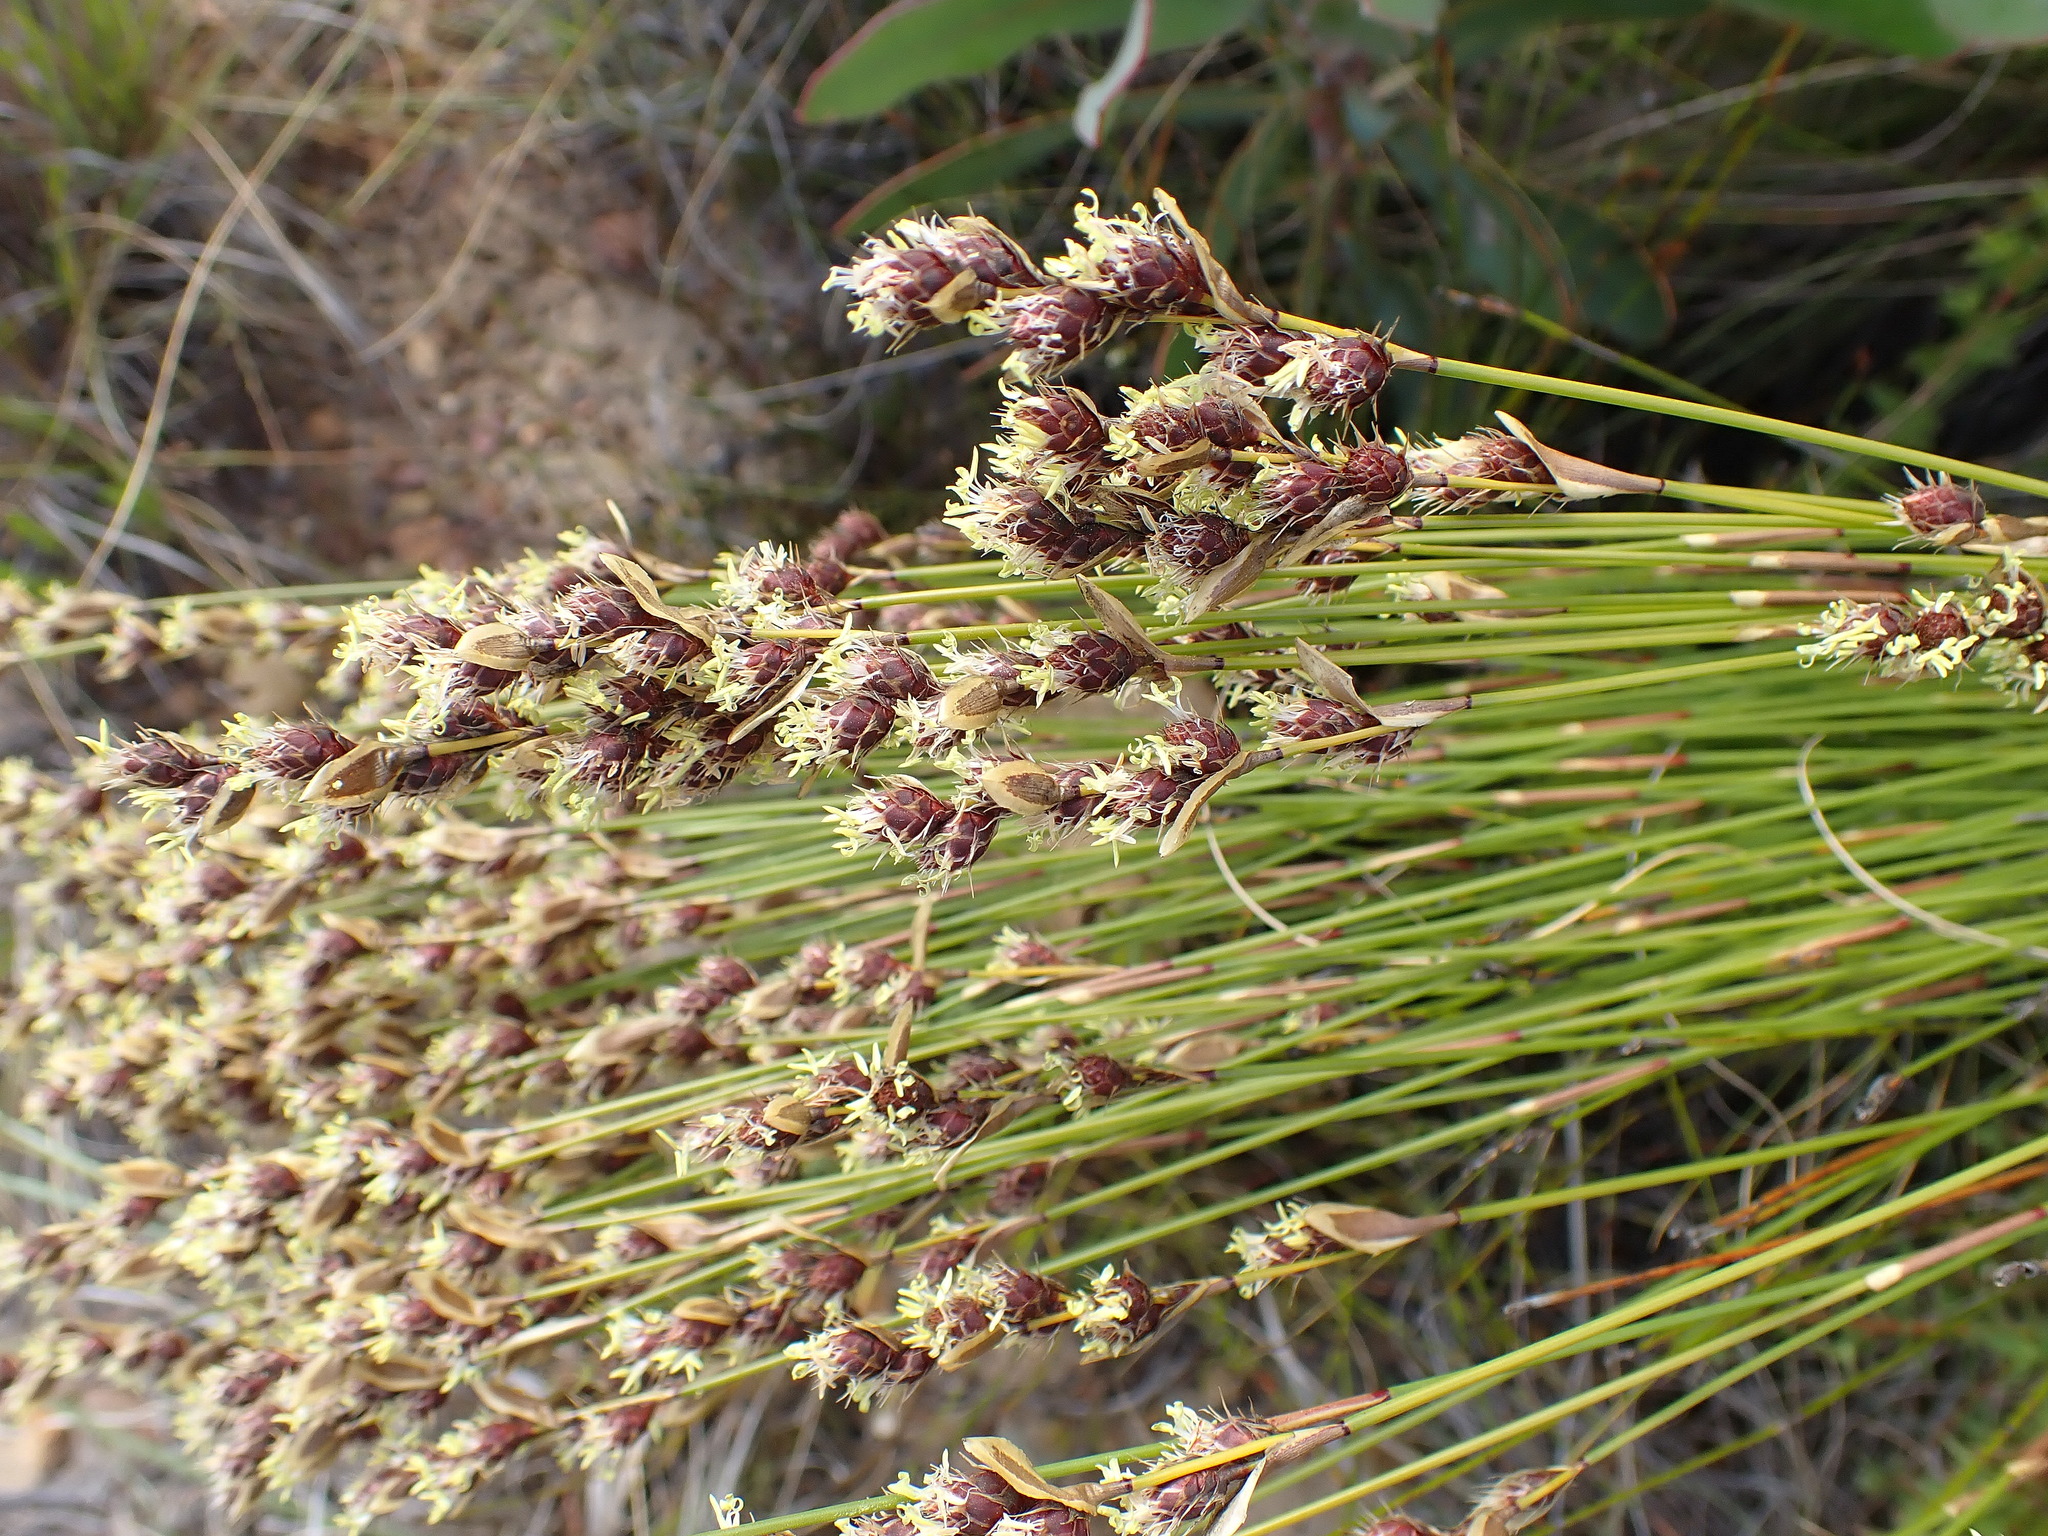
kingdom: Plantae
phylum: Tracheophyta
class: Liliopsida
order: Poales
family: Restionaceae
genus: Hypodiscus
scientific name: Hypodiscus aristatus
